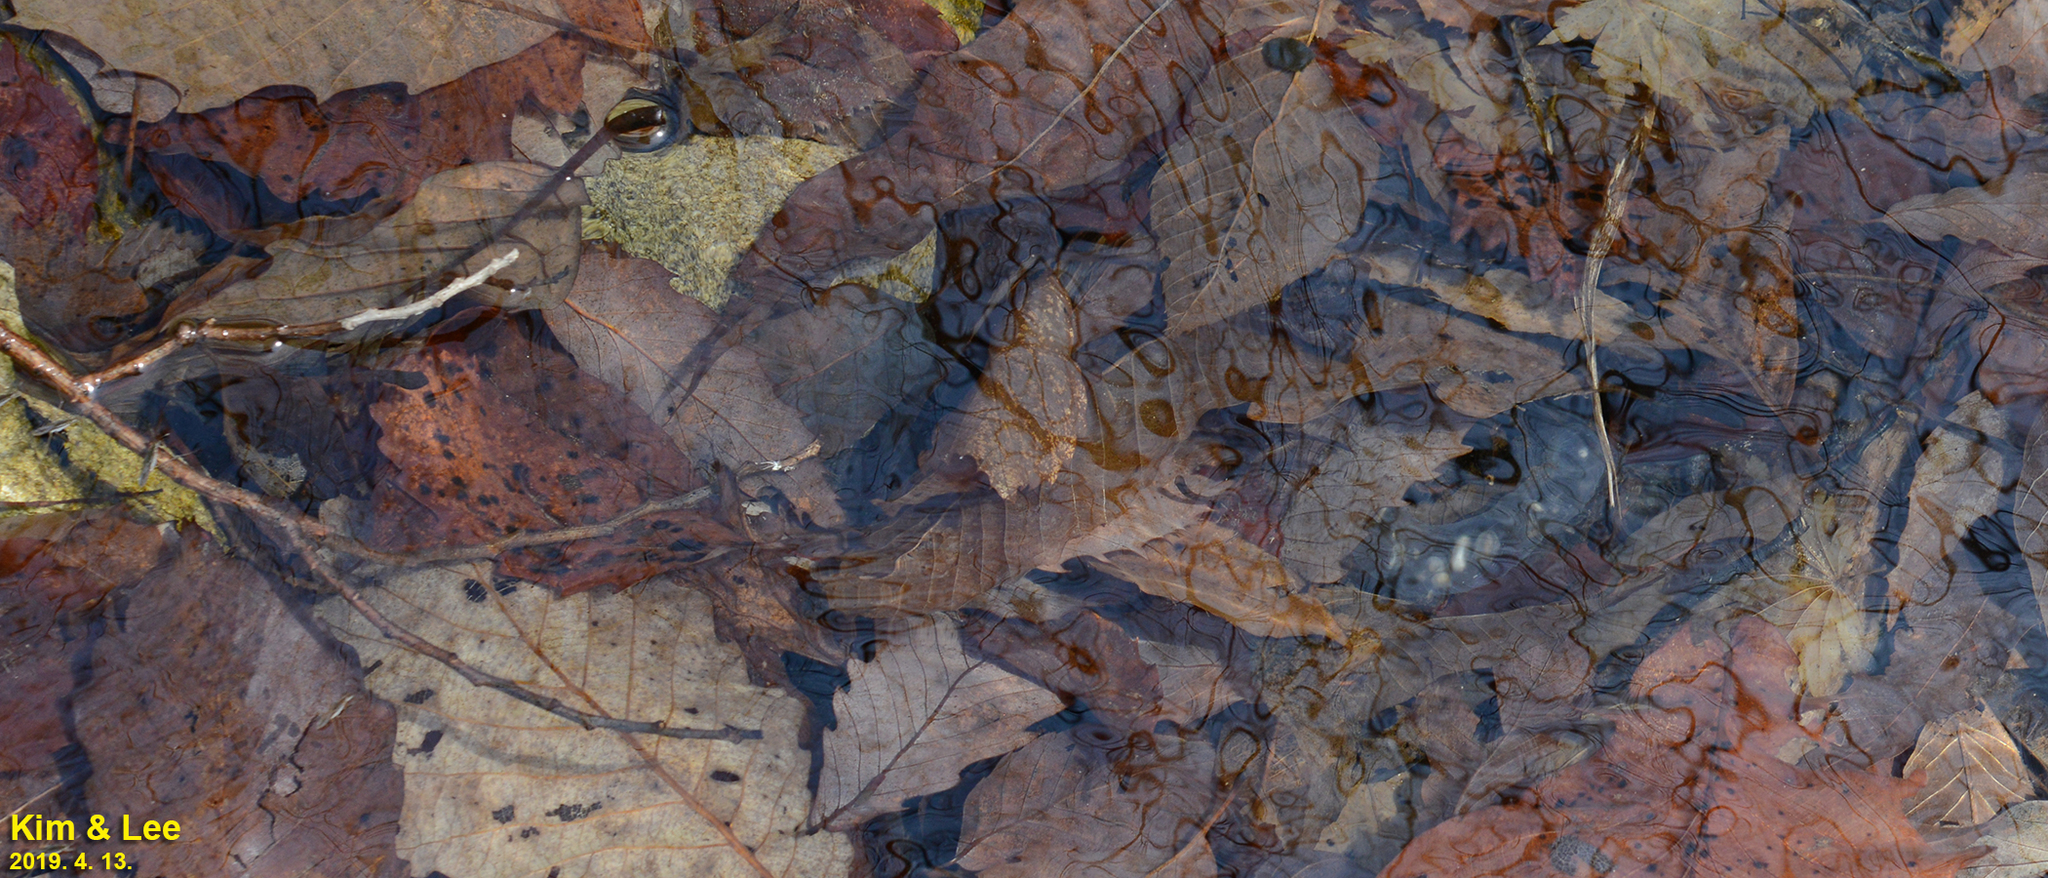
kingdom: Animalia
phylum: Chordata
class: Amphibia
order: Caudata
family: Hynobiidae
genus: Hynobius
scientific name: Hynobius leechii
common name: Gensan salamander
